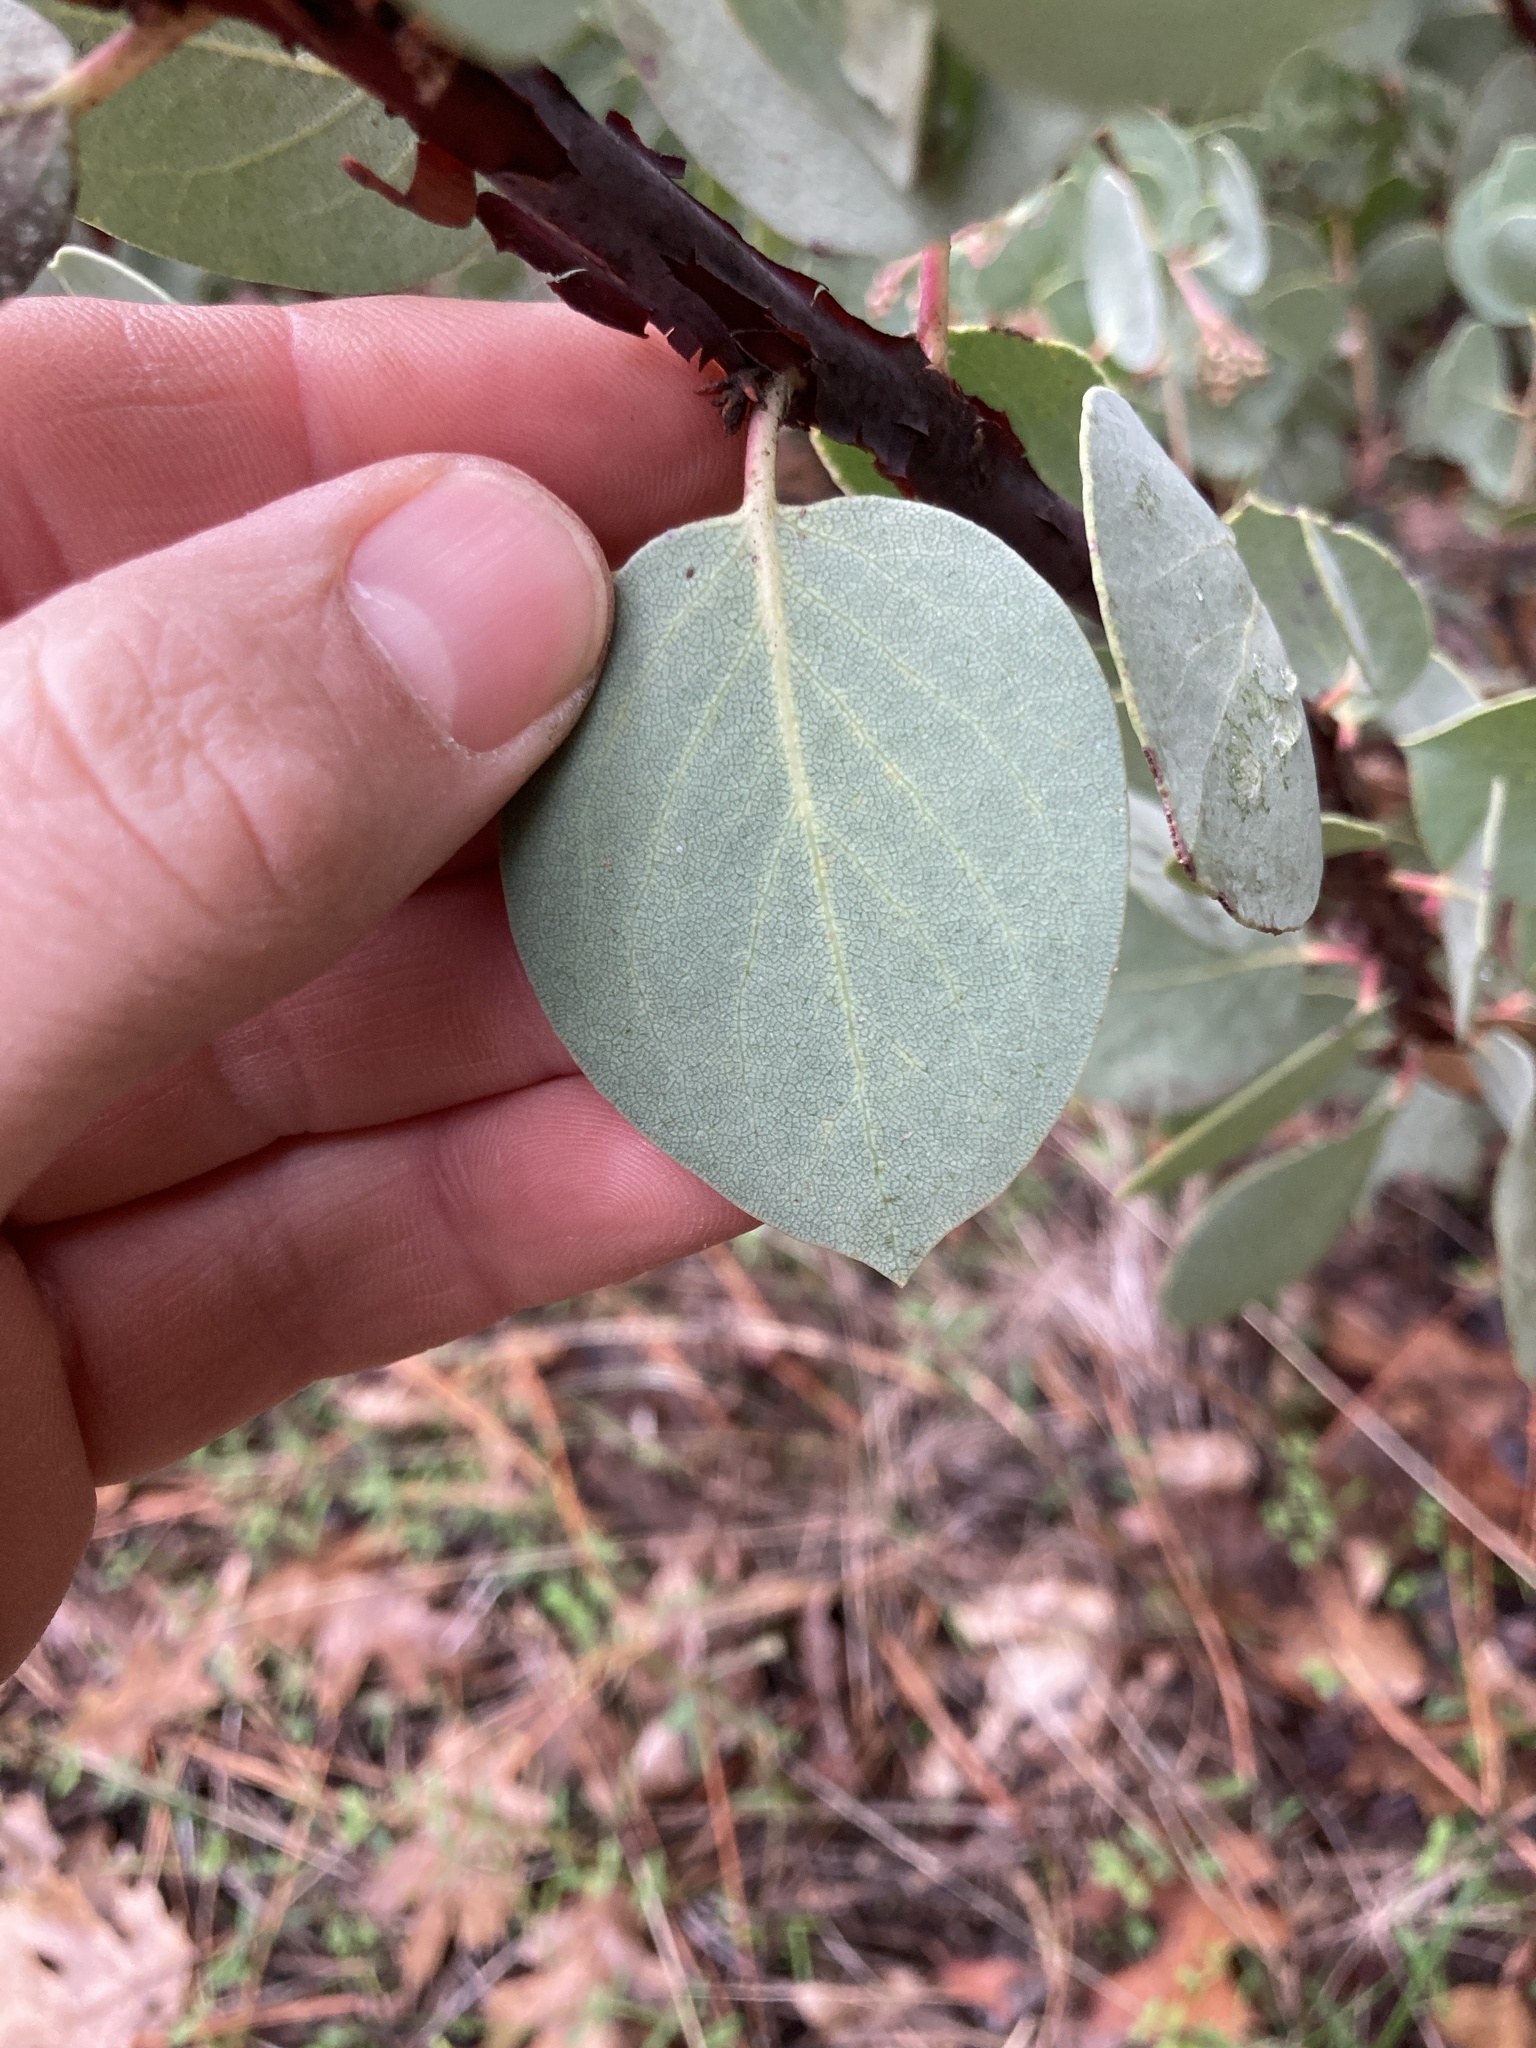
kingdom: Plantae
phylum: Tracheophyta
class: Magnoliopsida
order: Ericales
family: Ericaceae
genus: Arctostaphylos
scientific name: Arctostaphylos viscida
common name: White-leaf manzanita
